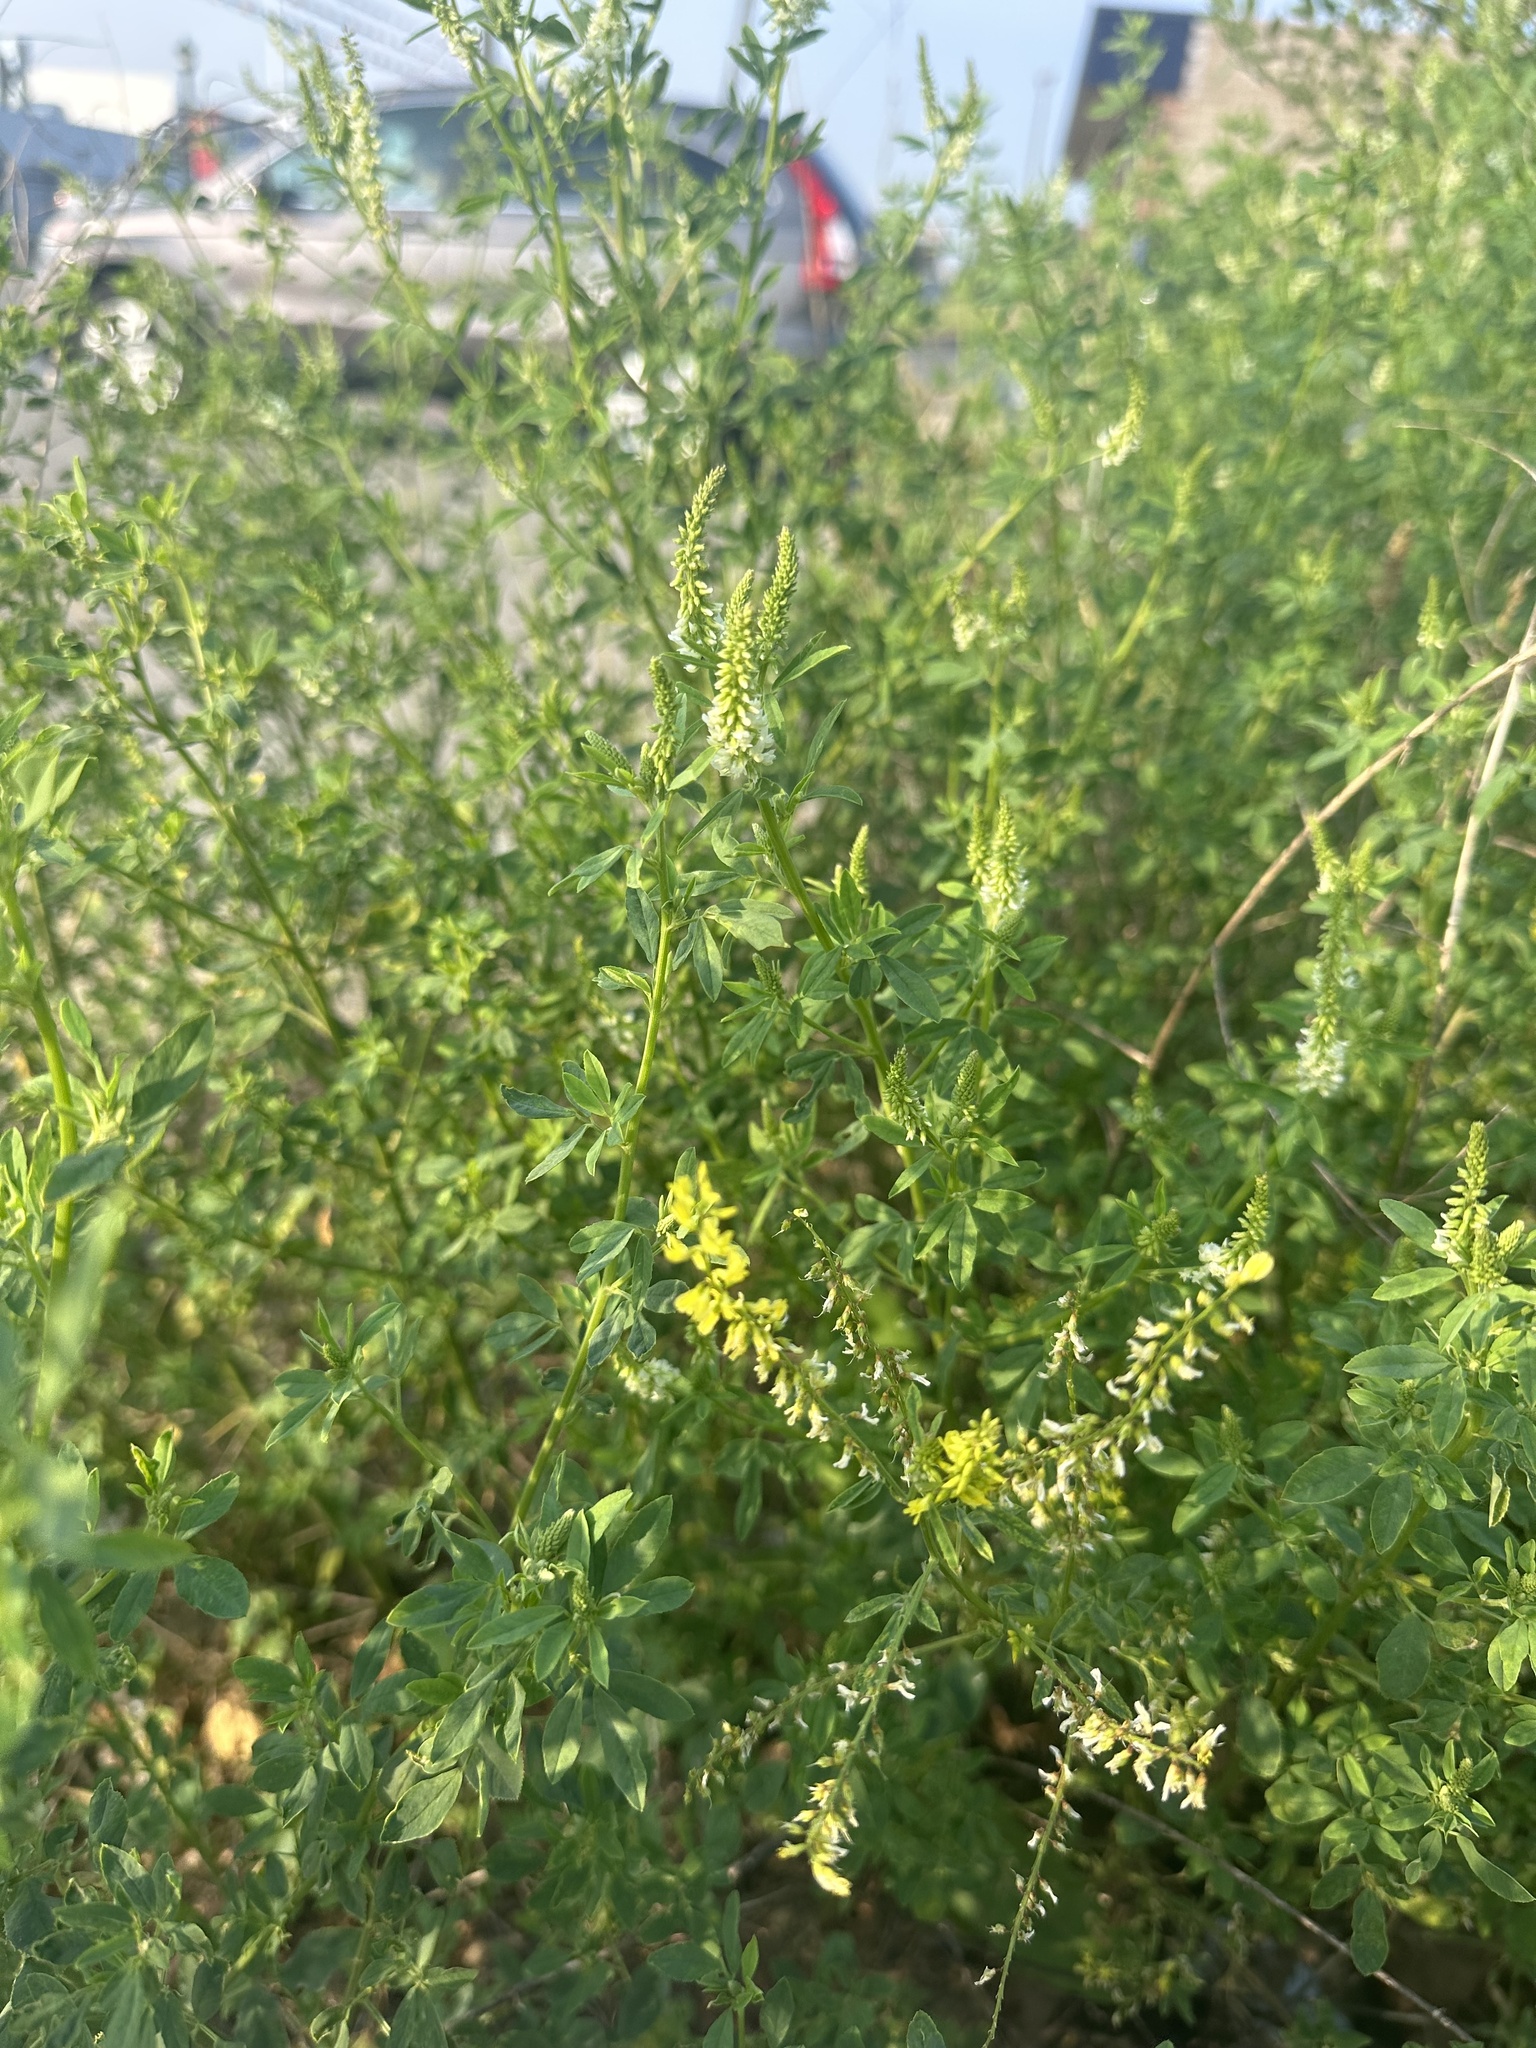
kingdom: Plantae
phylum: Tracheophyta
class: Magnoliopsida
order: Fabales
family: Fabaceae
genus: Melilotus
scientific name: Melilotus officinalis
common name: Sweetclover
